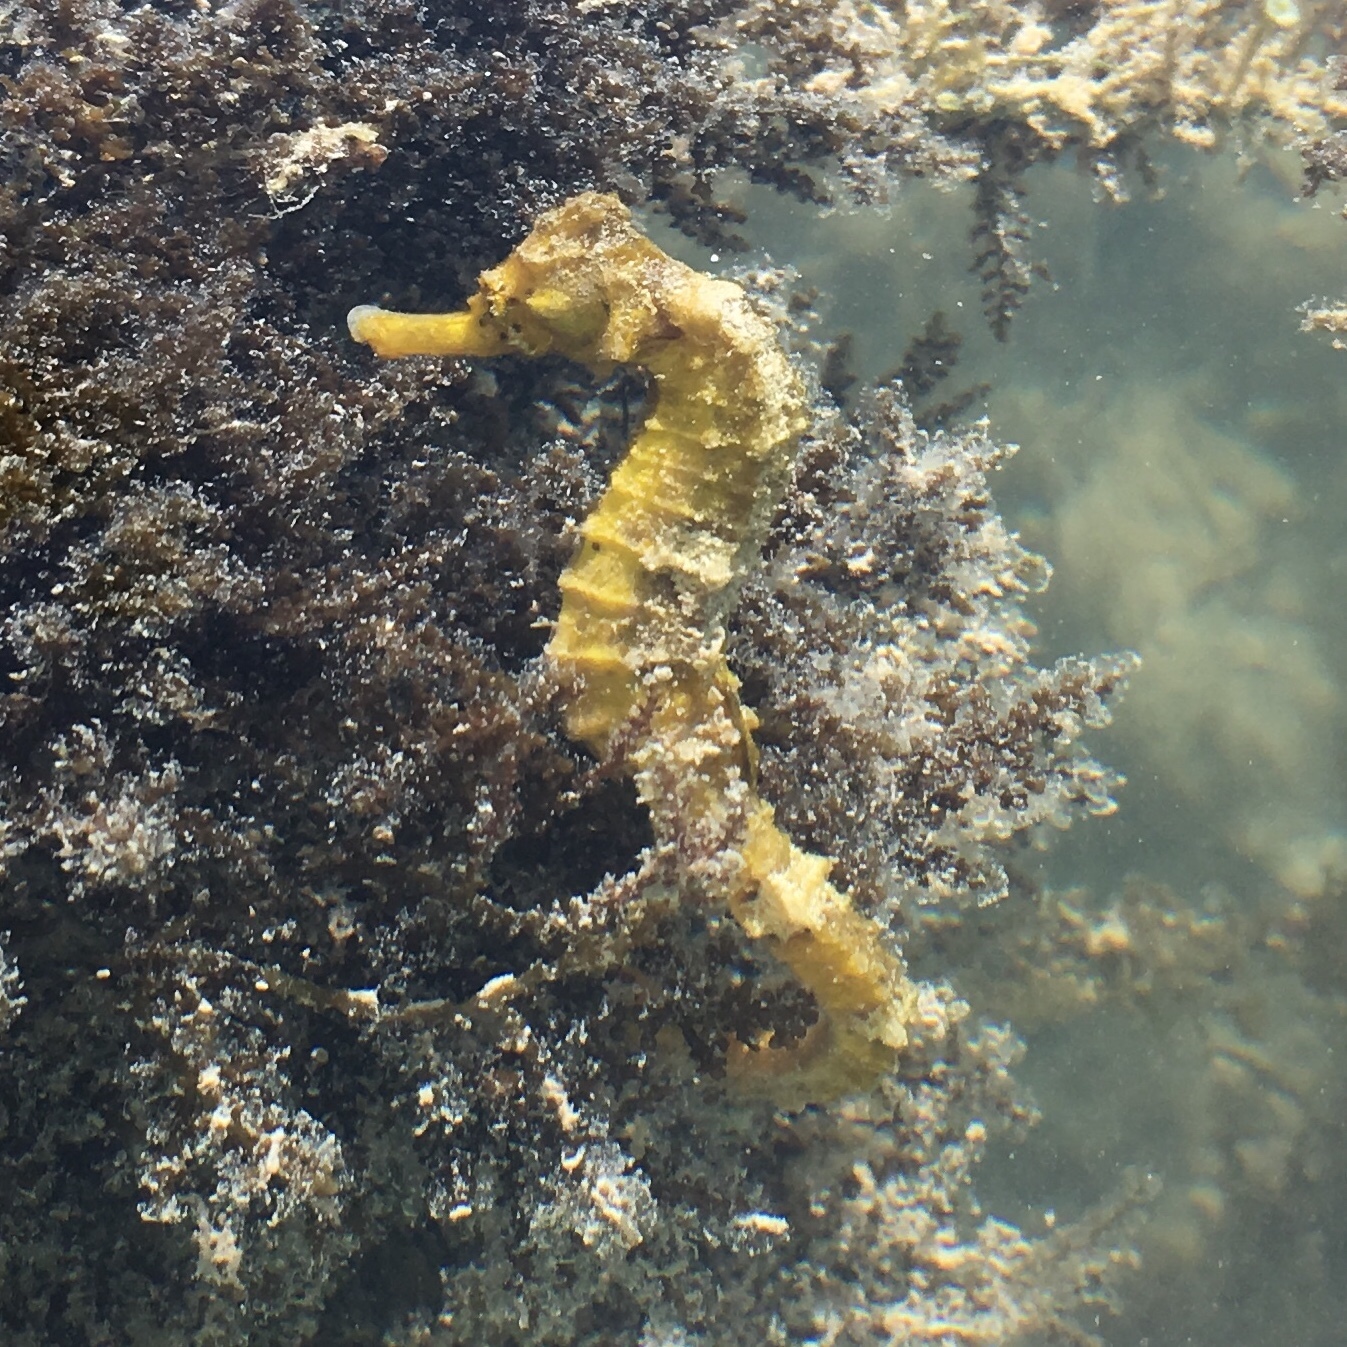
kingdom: Animalia
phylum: Chordata
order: Syngnathiformes
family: Syngnathidae
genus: Hippocampus
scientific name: Hippocampus reidi
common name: Slender seahorse
